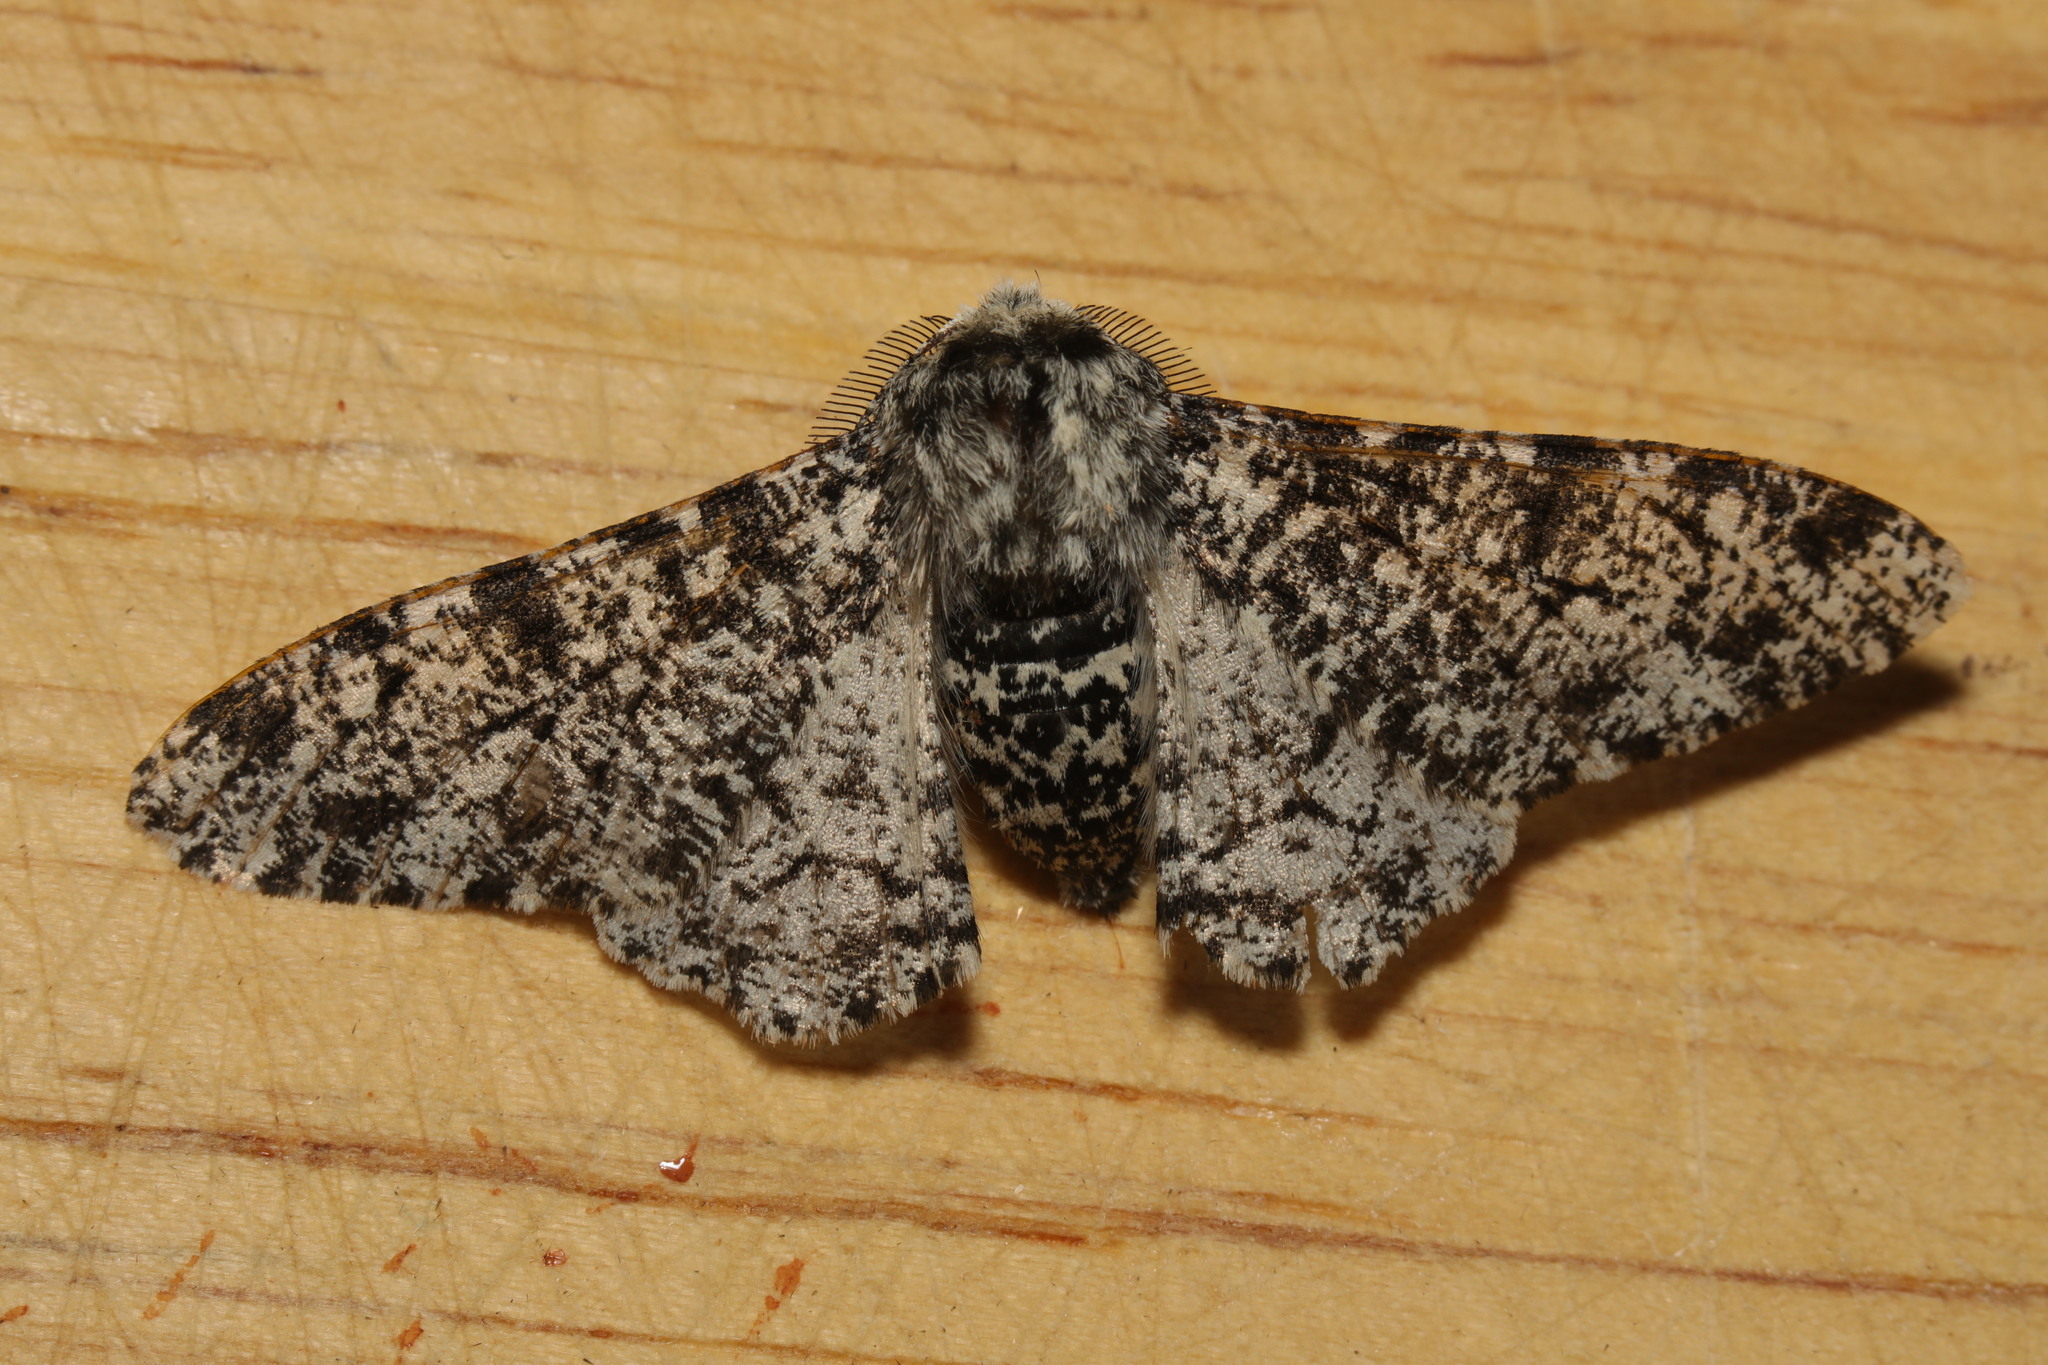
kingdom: Animalia
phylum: Arthropoda
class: Insecta
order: Lepidoptera
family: Geometridae
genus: Biston
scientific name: Biston betularia
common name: Peppered moth
